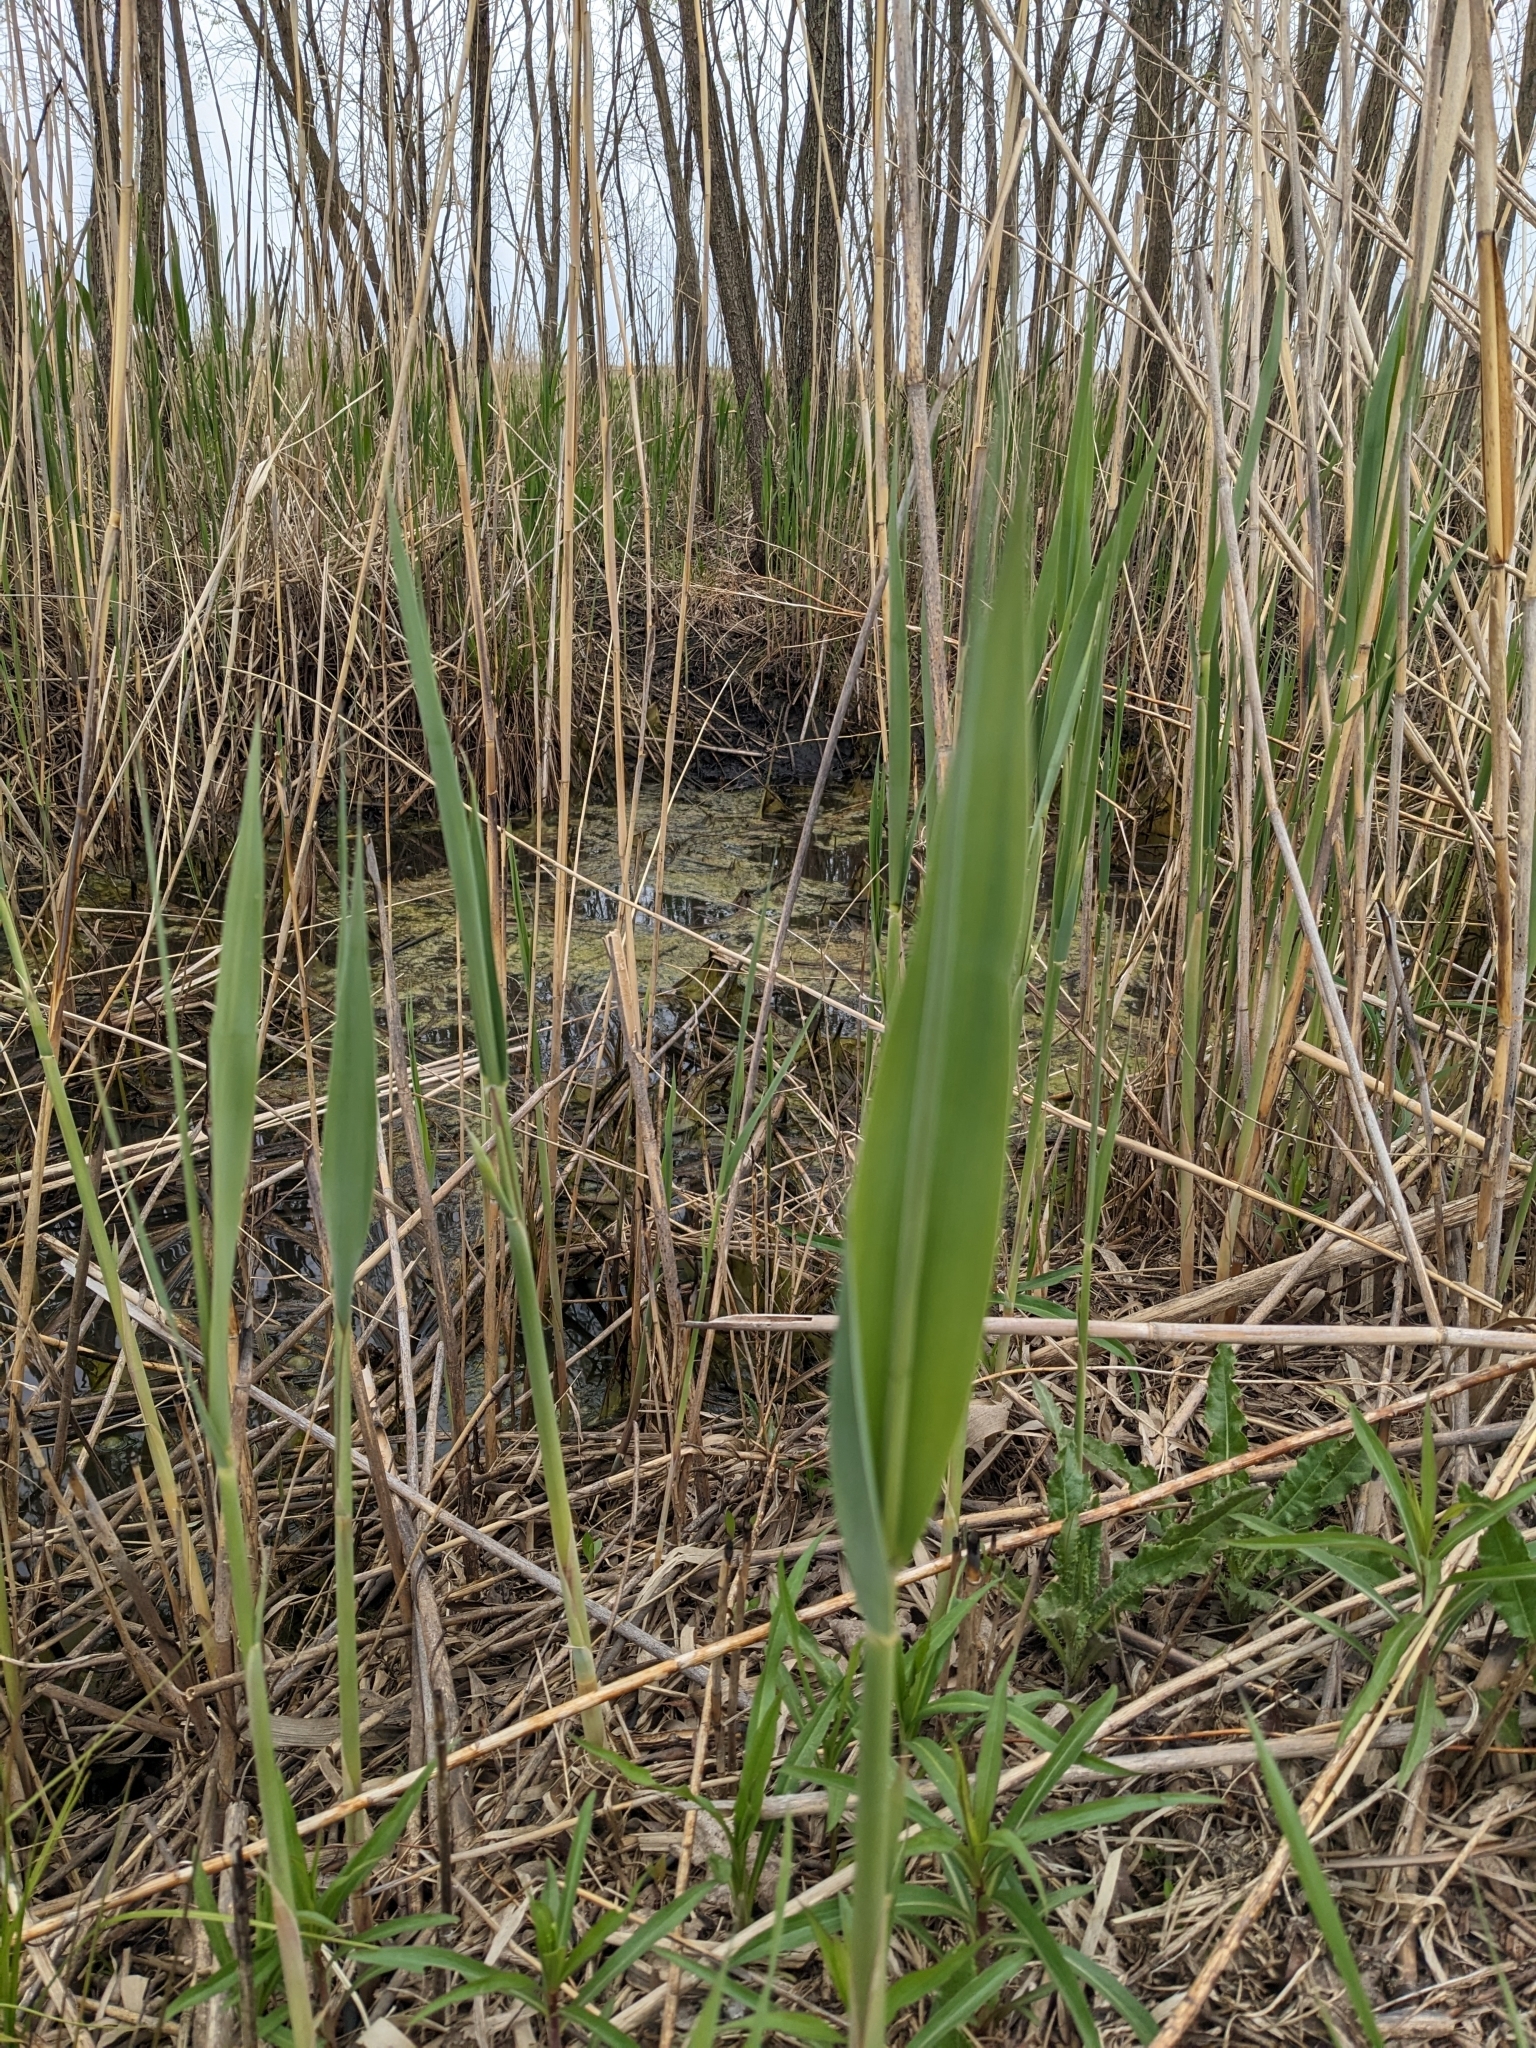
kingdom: Plantae
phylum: Tracheophyta
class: Liliopsida
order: Poales
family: Poaceae
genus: Phragmites
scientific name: Phragmites australis
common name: Common reed
